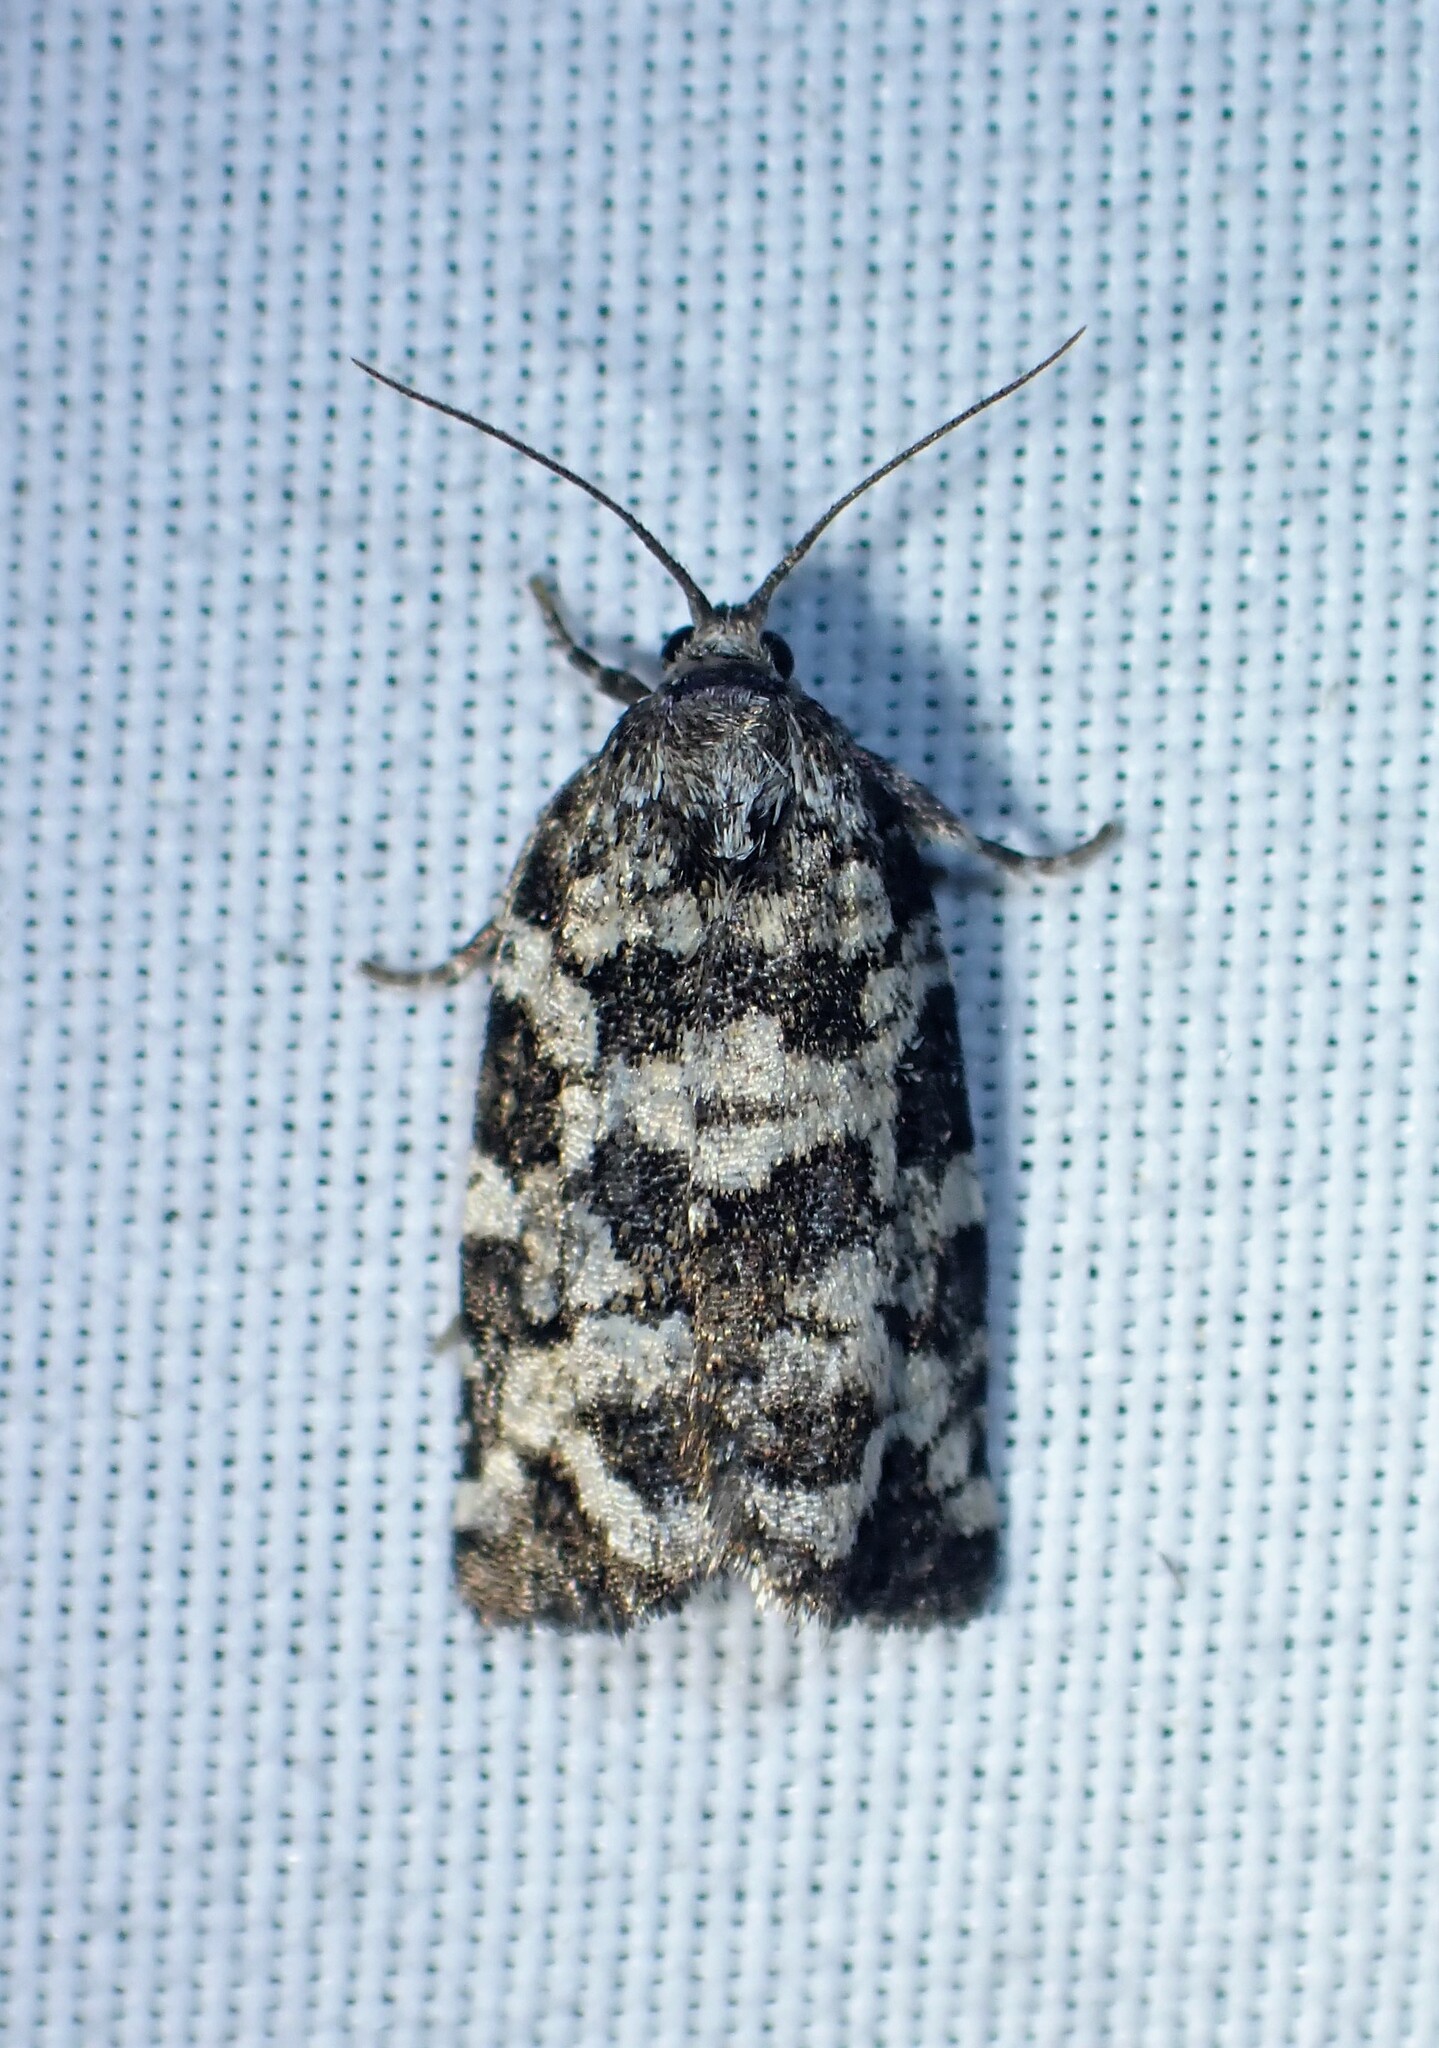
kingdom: Animalia
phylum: Arthropoda
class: Insecta
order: Lepidoptera
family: Tortricidae
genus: Archips
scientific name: Archips packardiana
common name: Spring spruce needle moth
